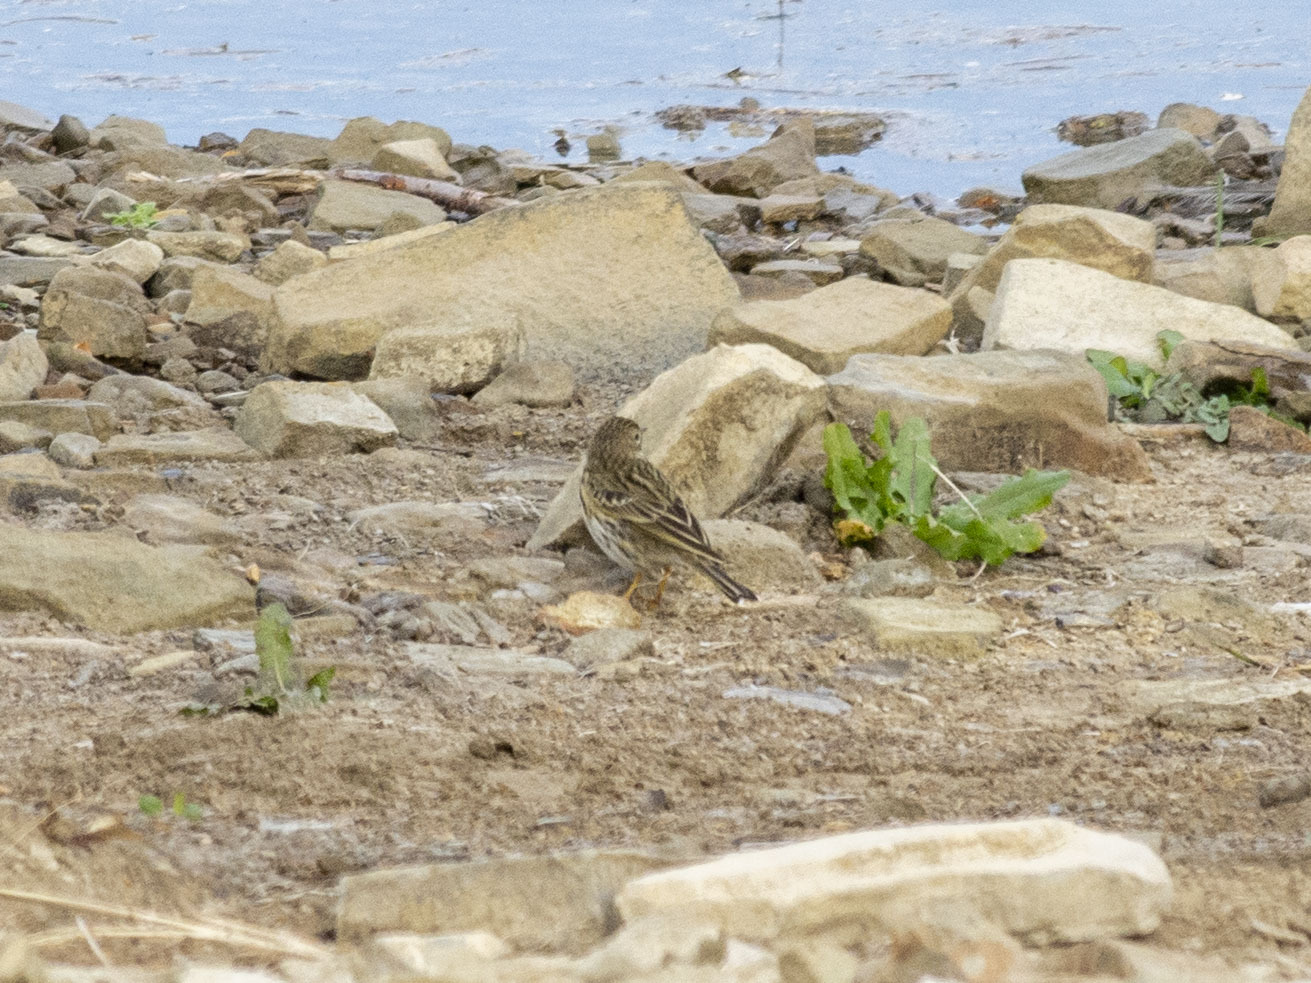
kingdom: Animalia
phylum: Chordata
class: Aves
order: Passeriformes
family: Motacillidae
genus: Anthus
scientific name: Anthus pratensis
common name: Meadow pipit
